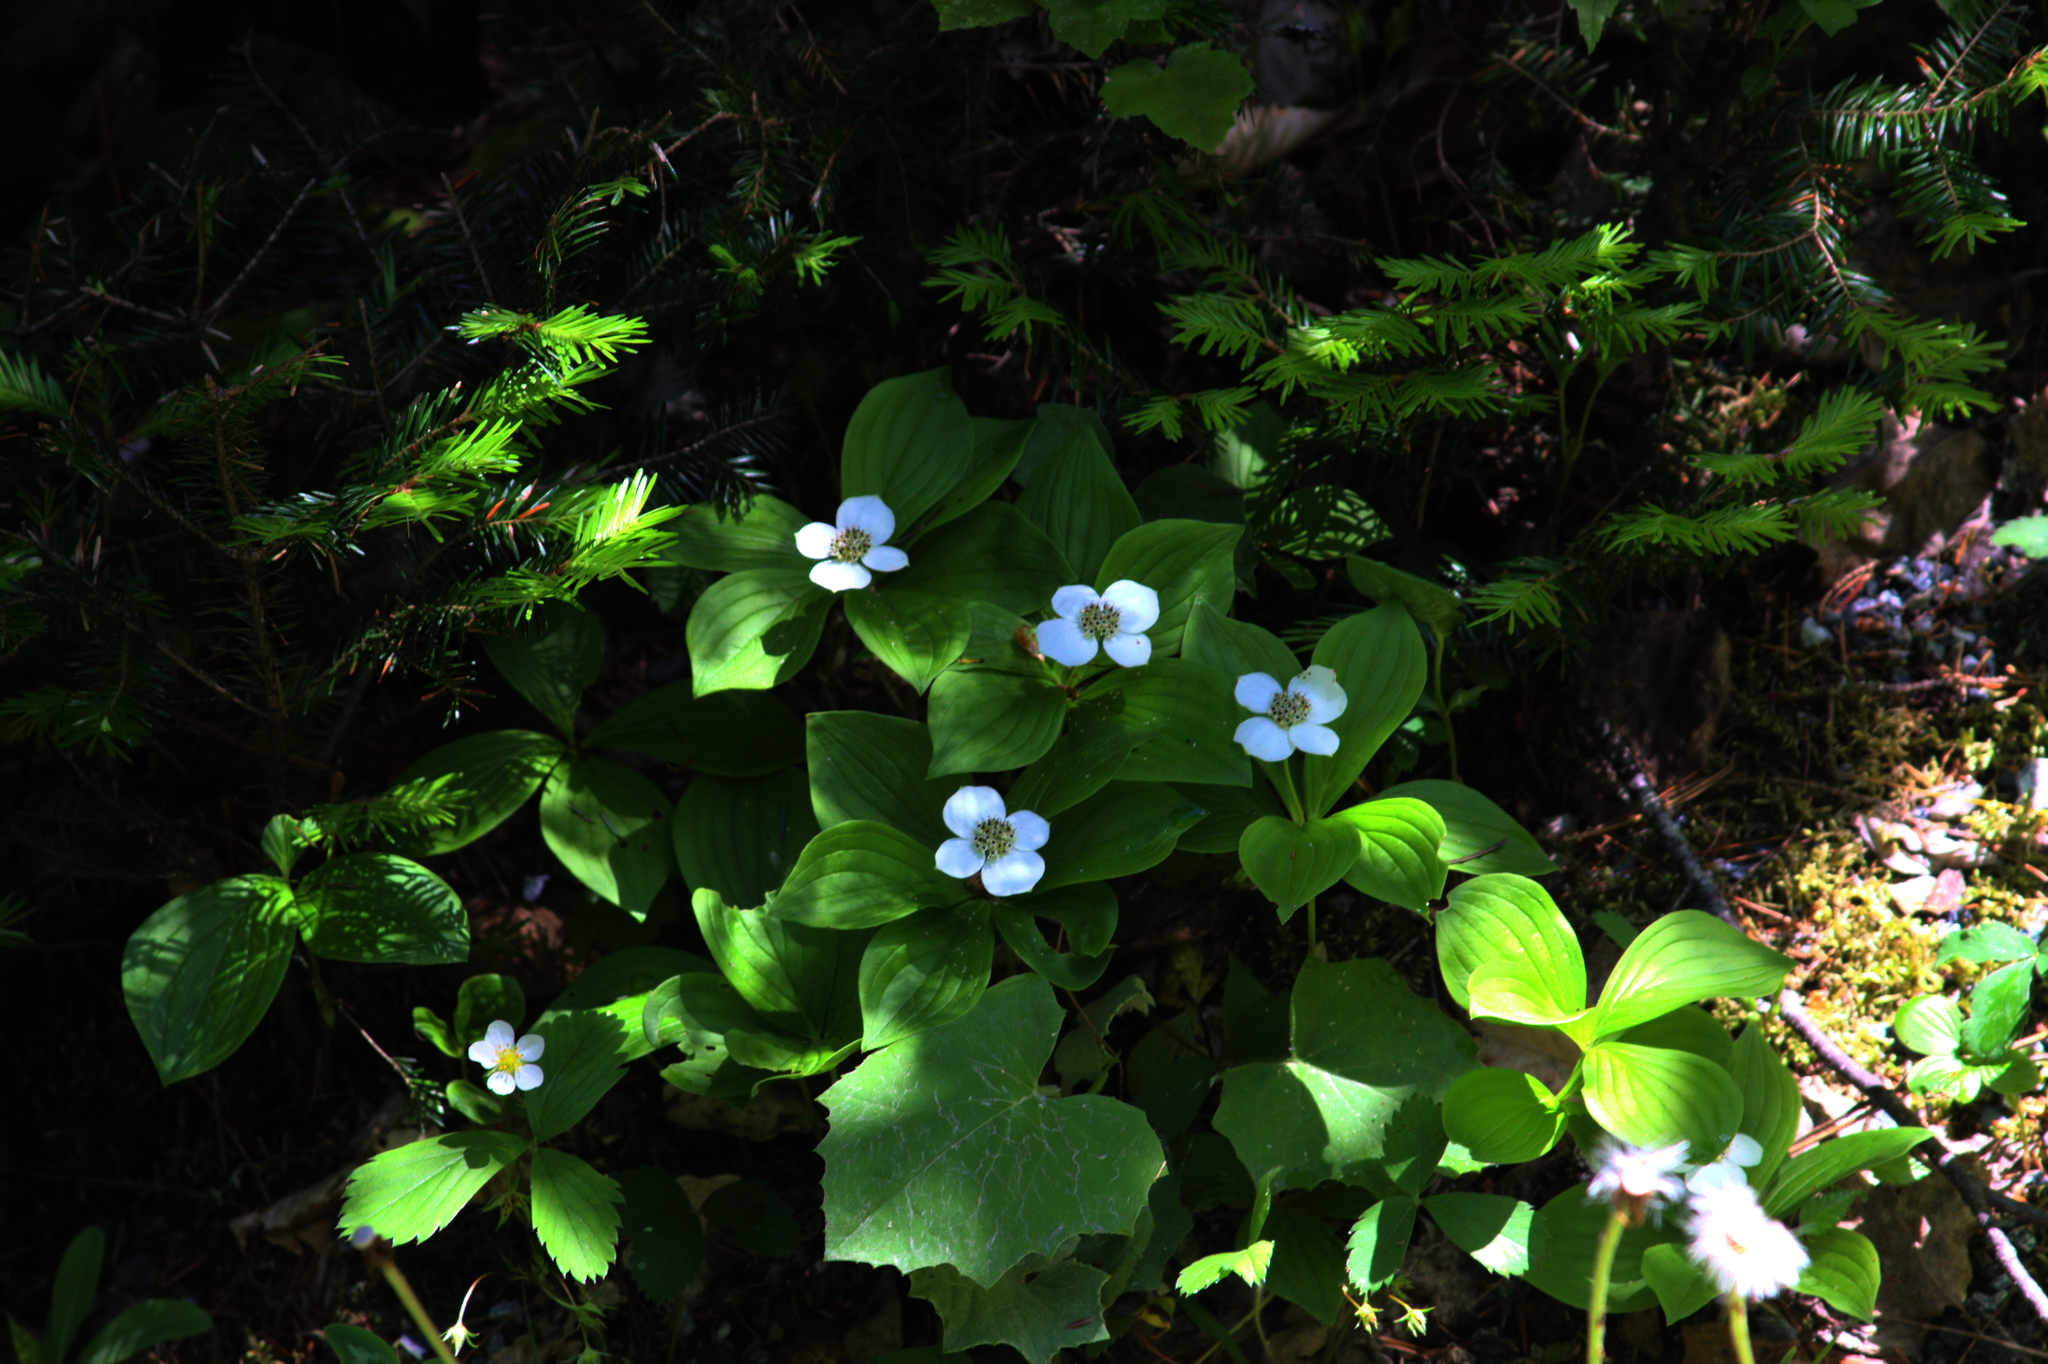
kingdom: Plantae
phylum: Tracheophyta
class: Magnoliopsida
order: Cornales
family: Cornaceae
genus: Cornus
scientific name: Cornus canadensis
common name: Creeping dogwood
